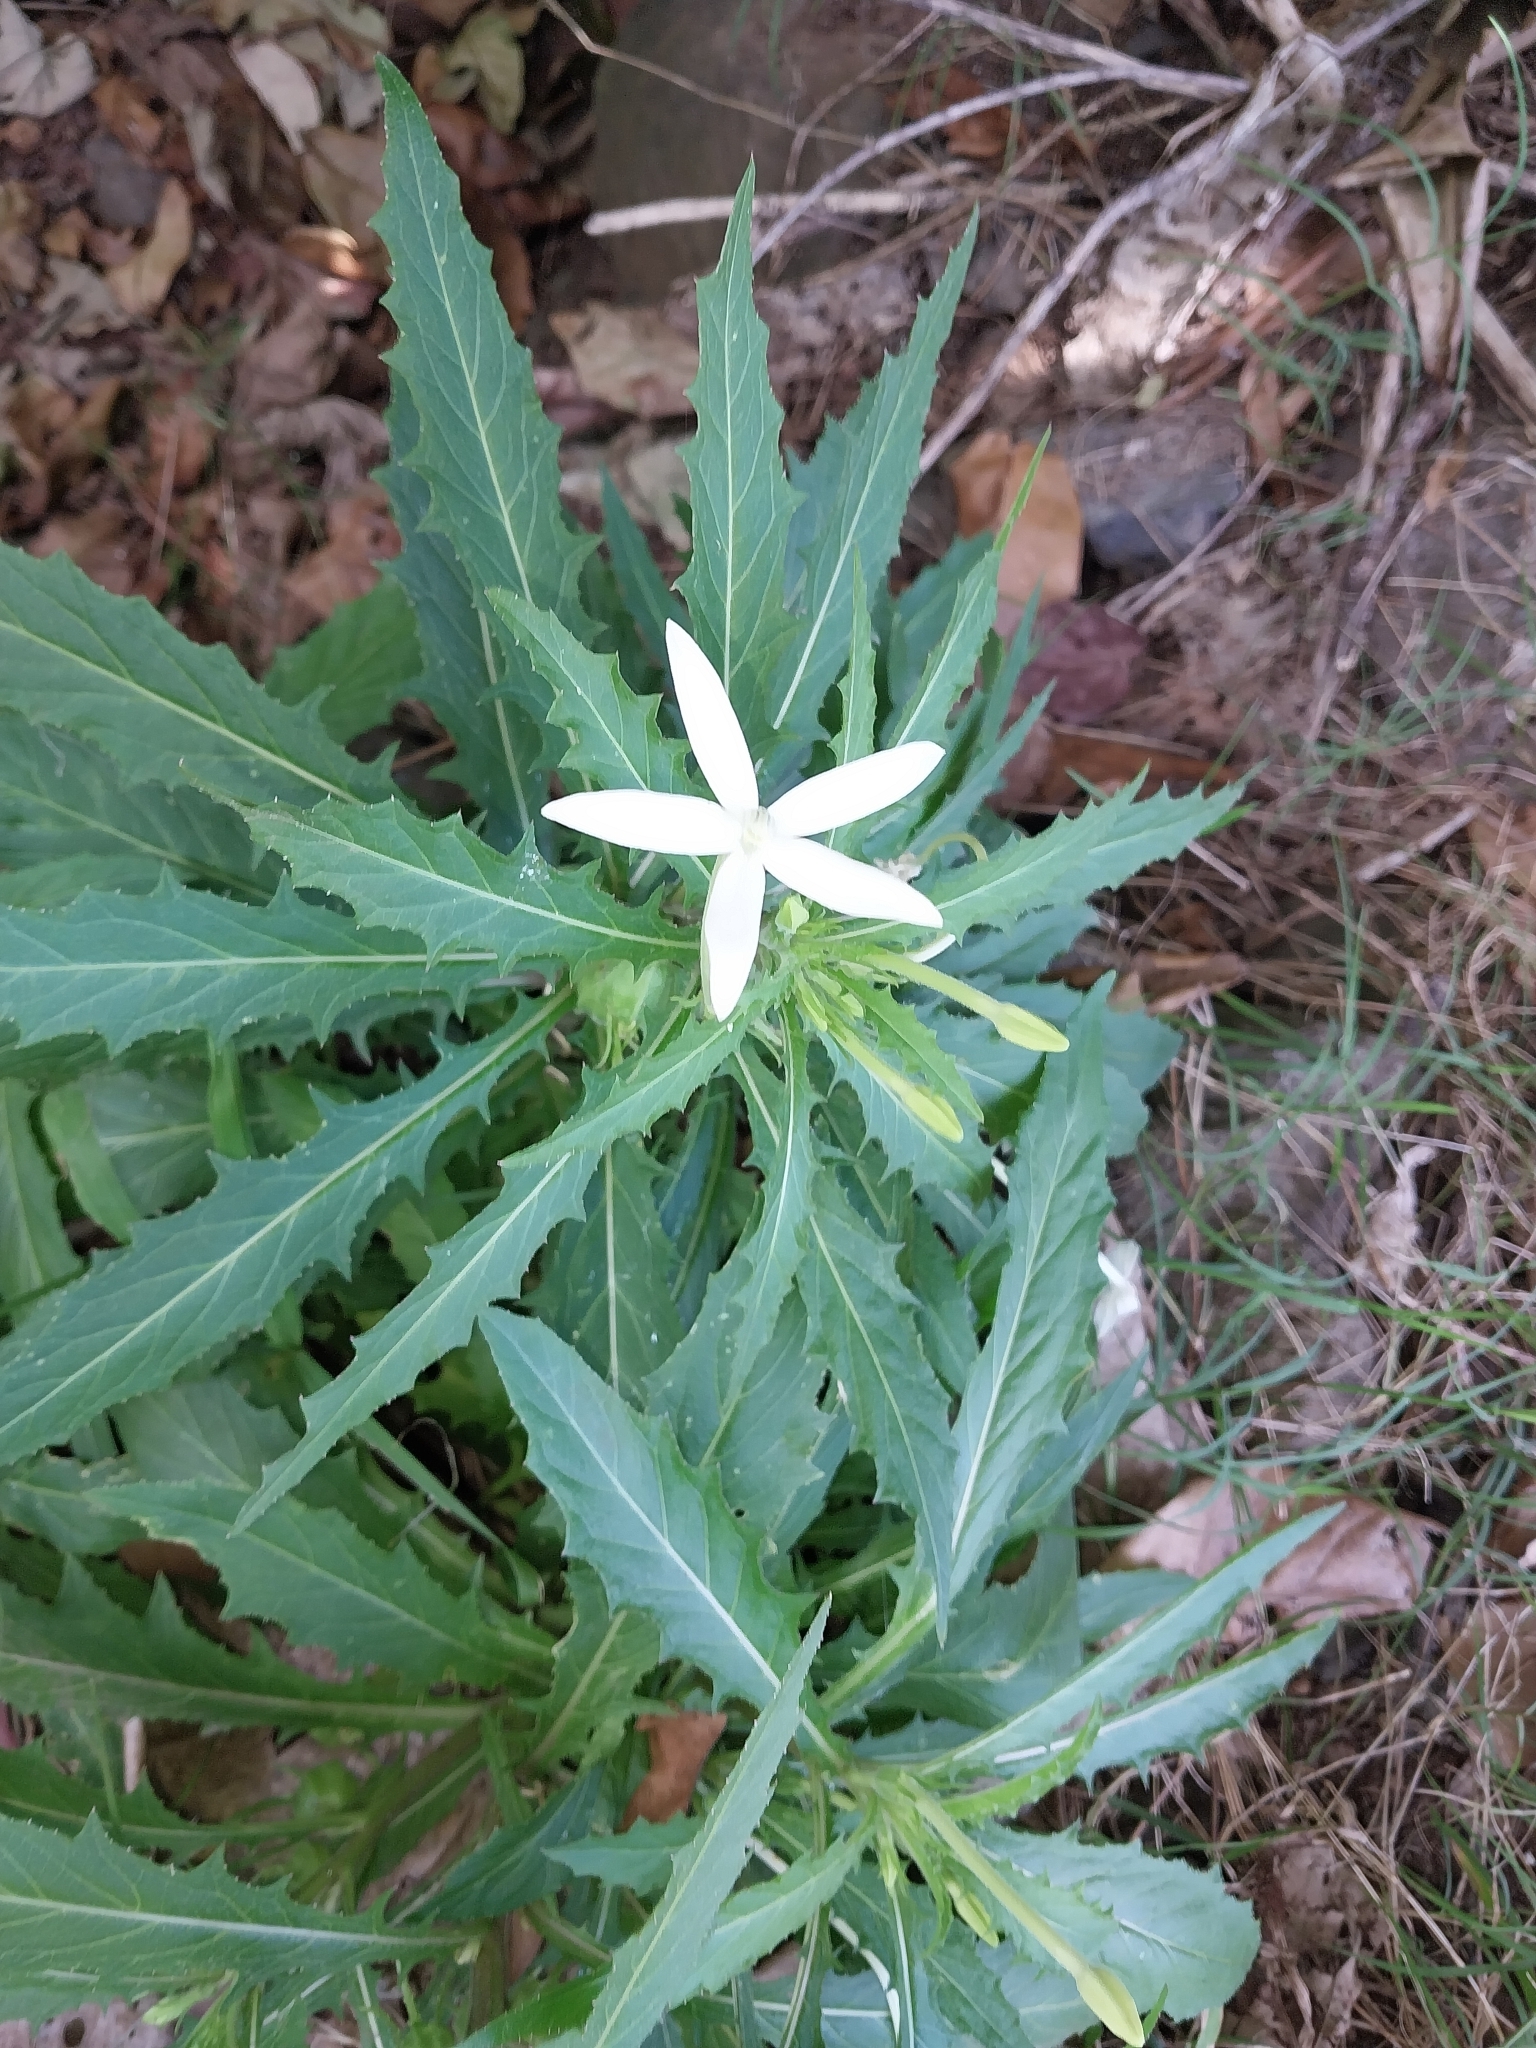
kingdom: Plantae
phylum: Tracheophyta
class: Magnoliopsida
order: Asterales
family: Campanulaceae
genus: Hippobroma
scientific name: Hippobroma longiflora
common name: Madamfate
